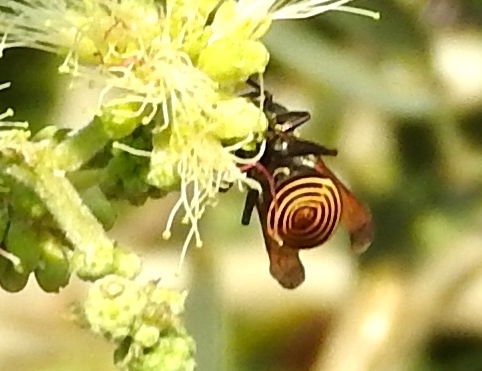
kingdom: Animalia
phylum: Arthropoda
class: Insecta
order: Hymenoptera
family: Vespidae
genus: Brachygastra
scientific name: Brachygastra mellifica
